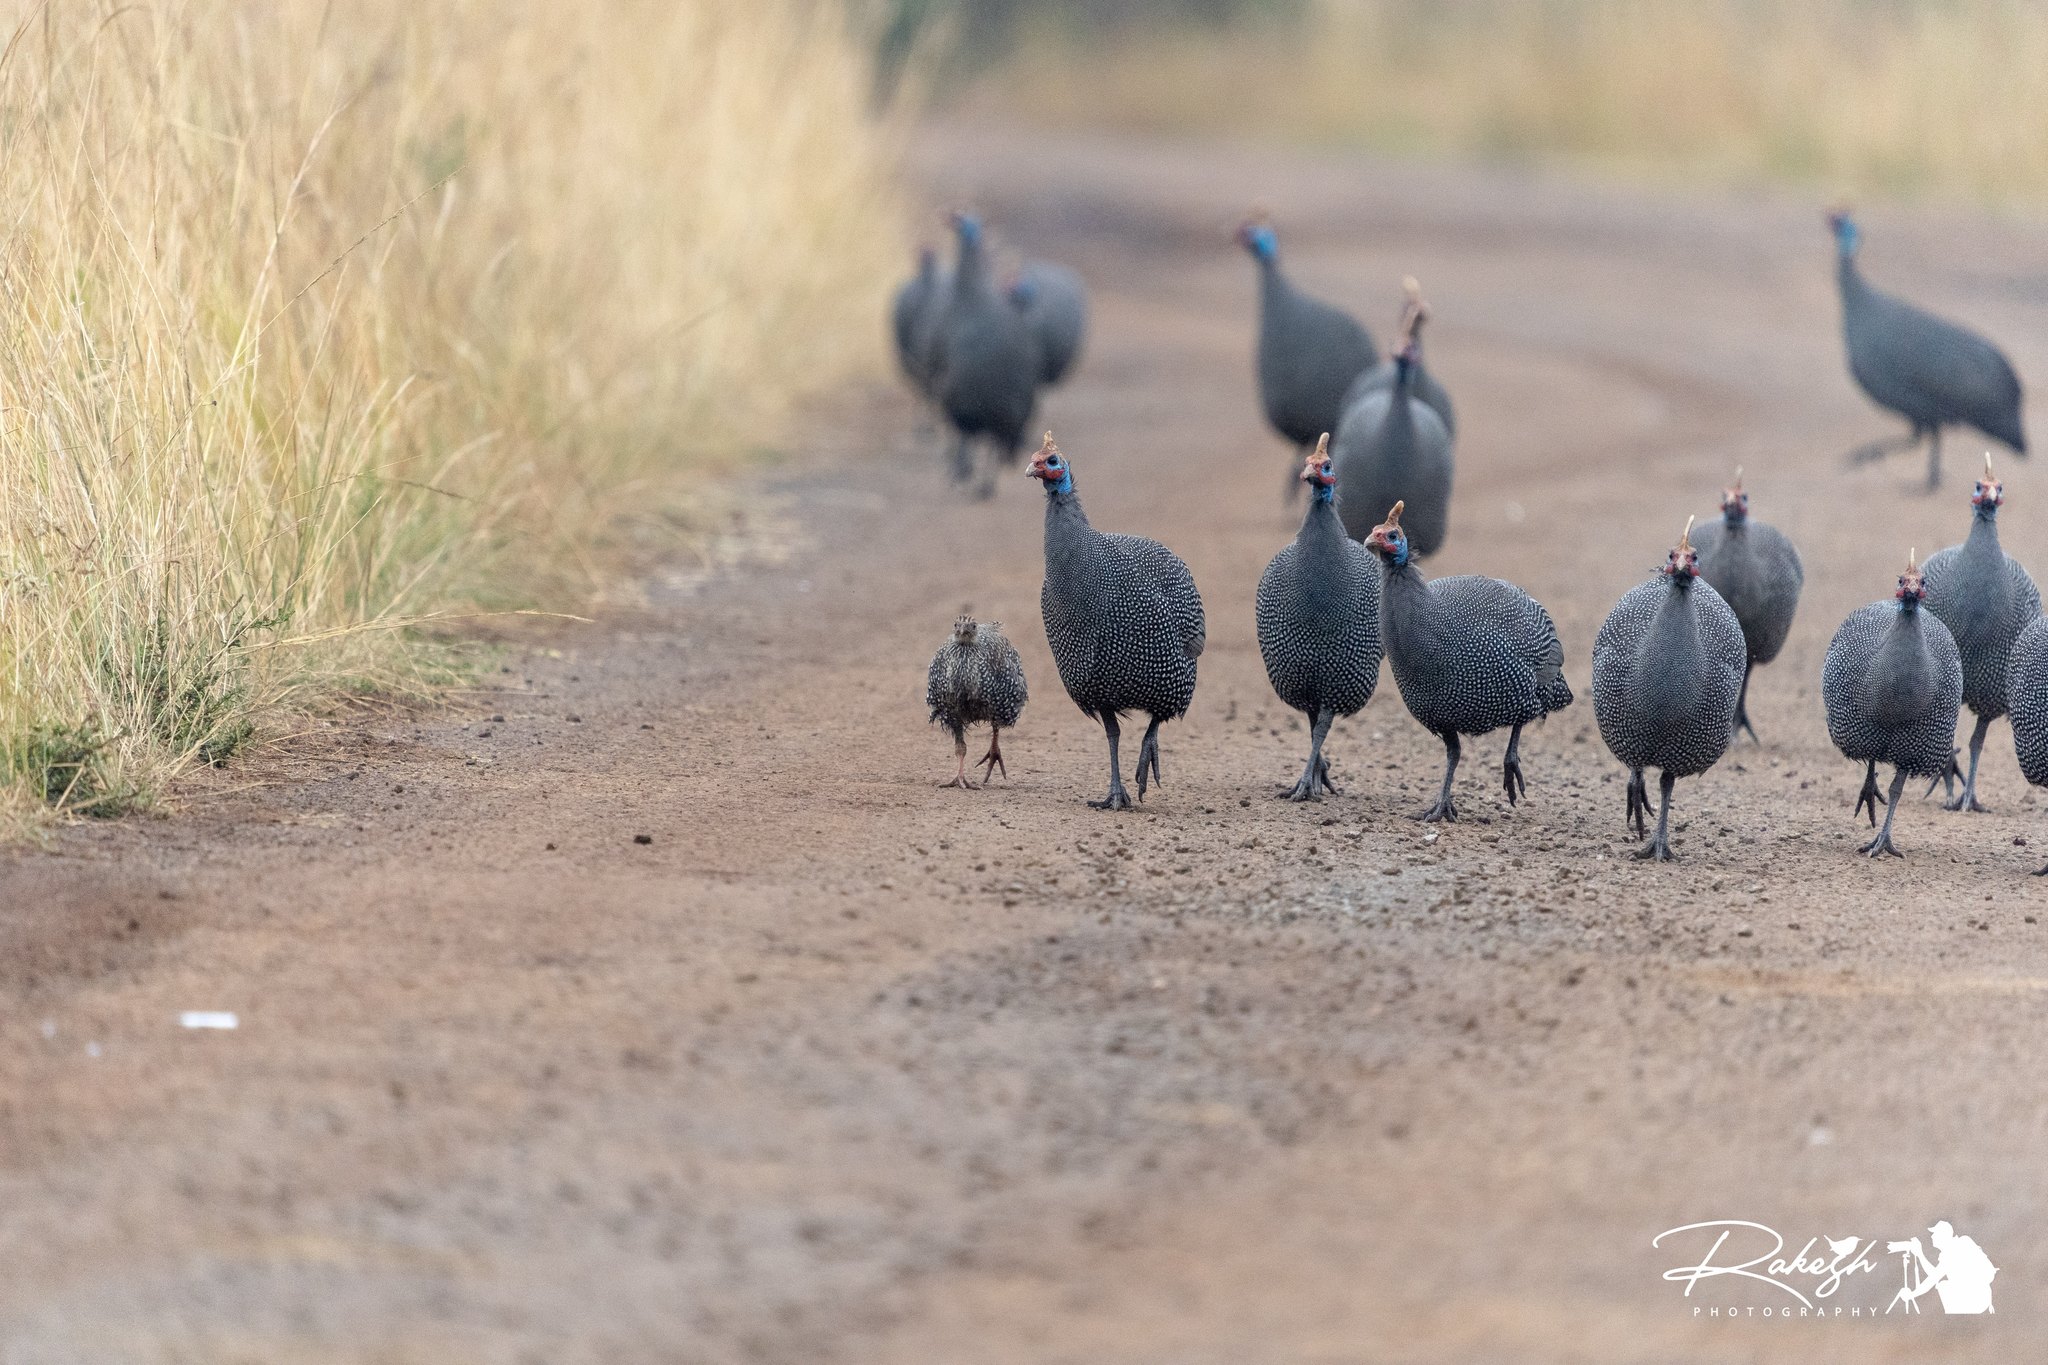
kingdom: Animalia
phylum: Chordata
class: Aves
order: Galliformes
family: Numididae
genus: Numida
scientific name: Numida meleagris
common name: Helmeted guineafowl
